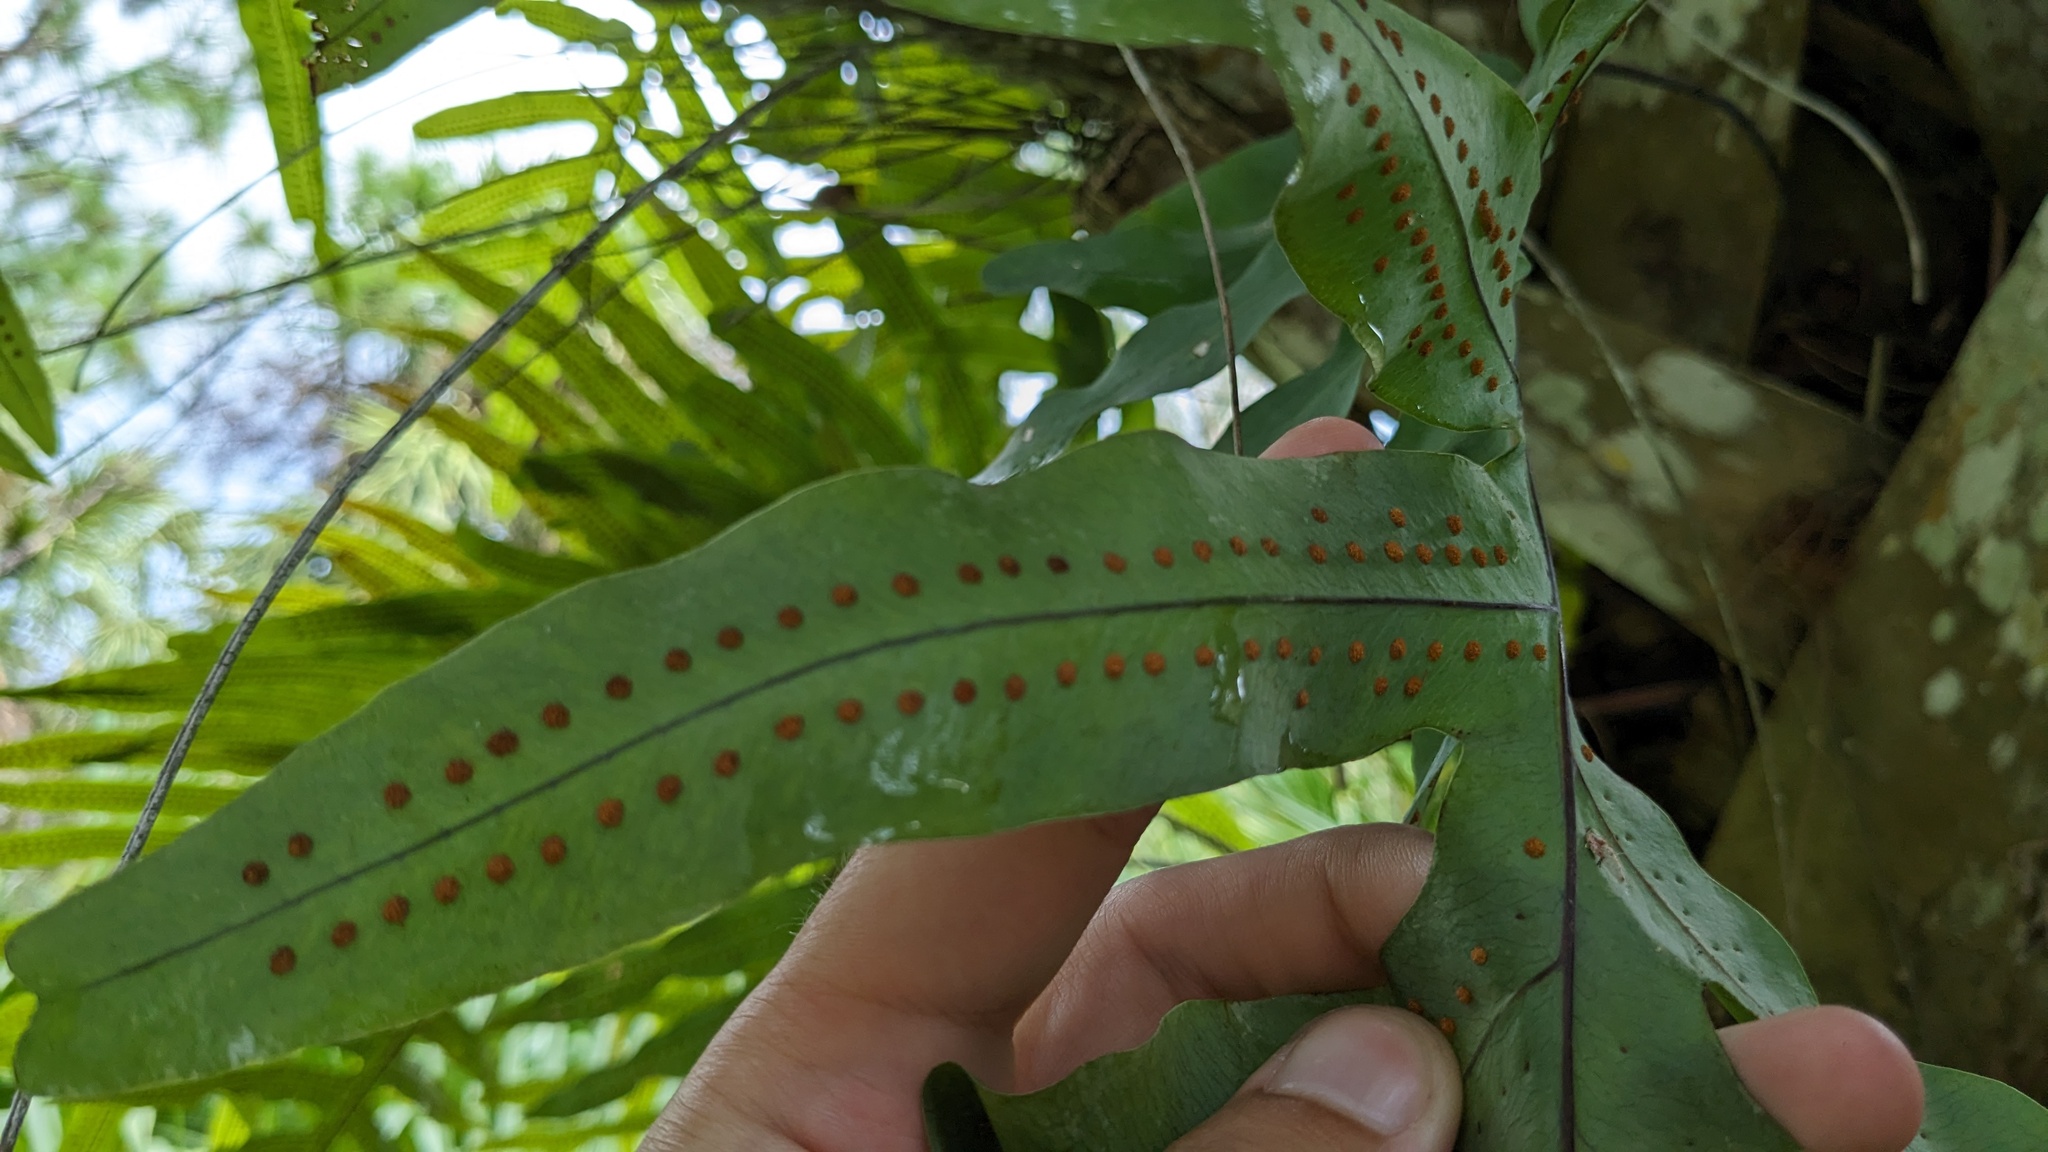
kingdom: Plantae
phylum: Tracheophyta
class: Polypodiopsida
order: Polypodiales
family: Polypodiaceae
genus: Phlebodium
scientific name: Phlebodium aureum
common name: Gold-foot fern
